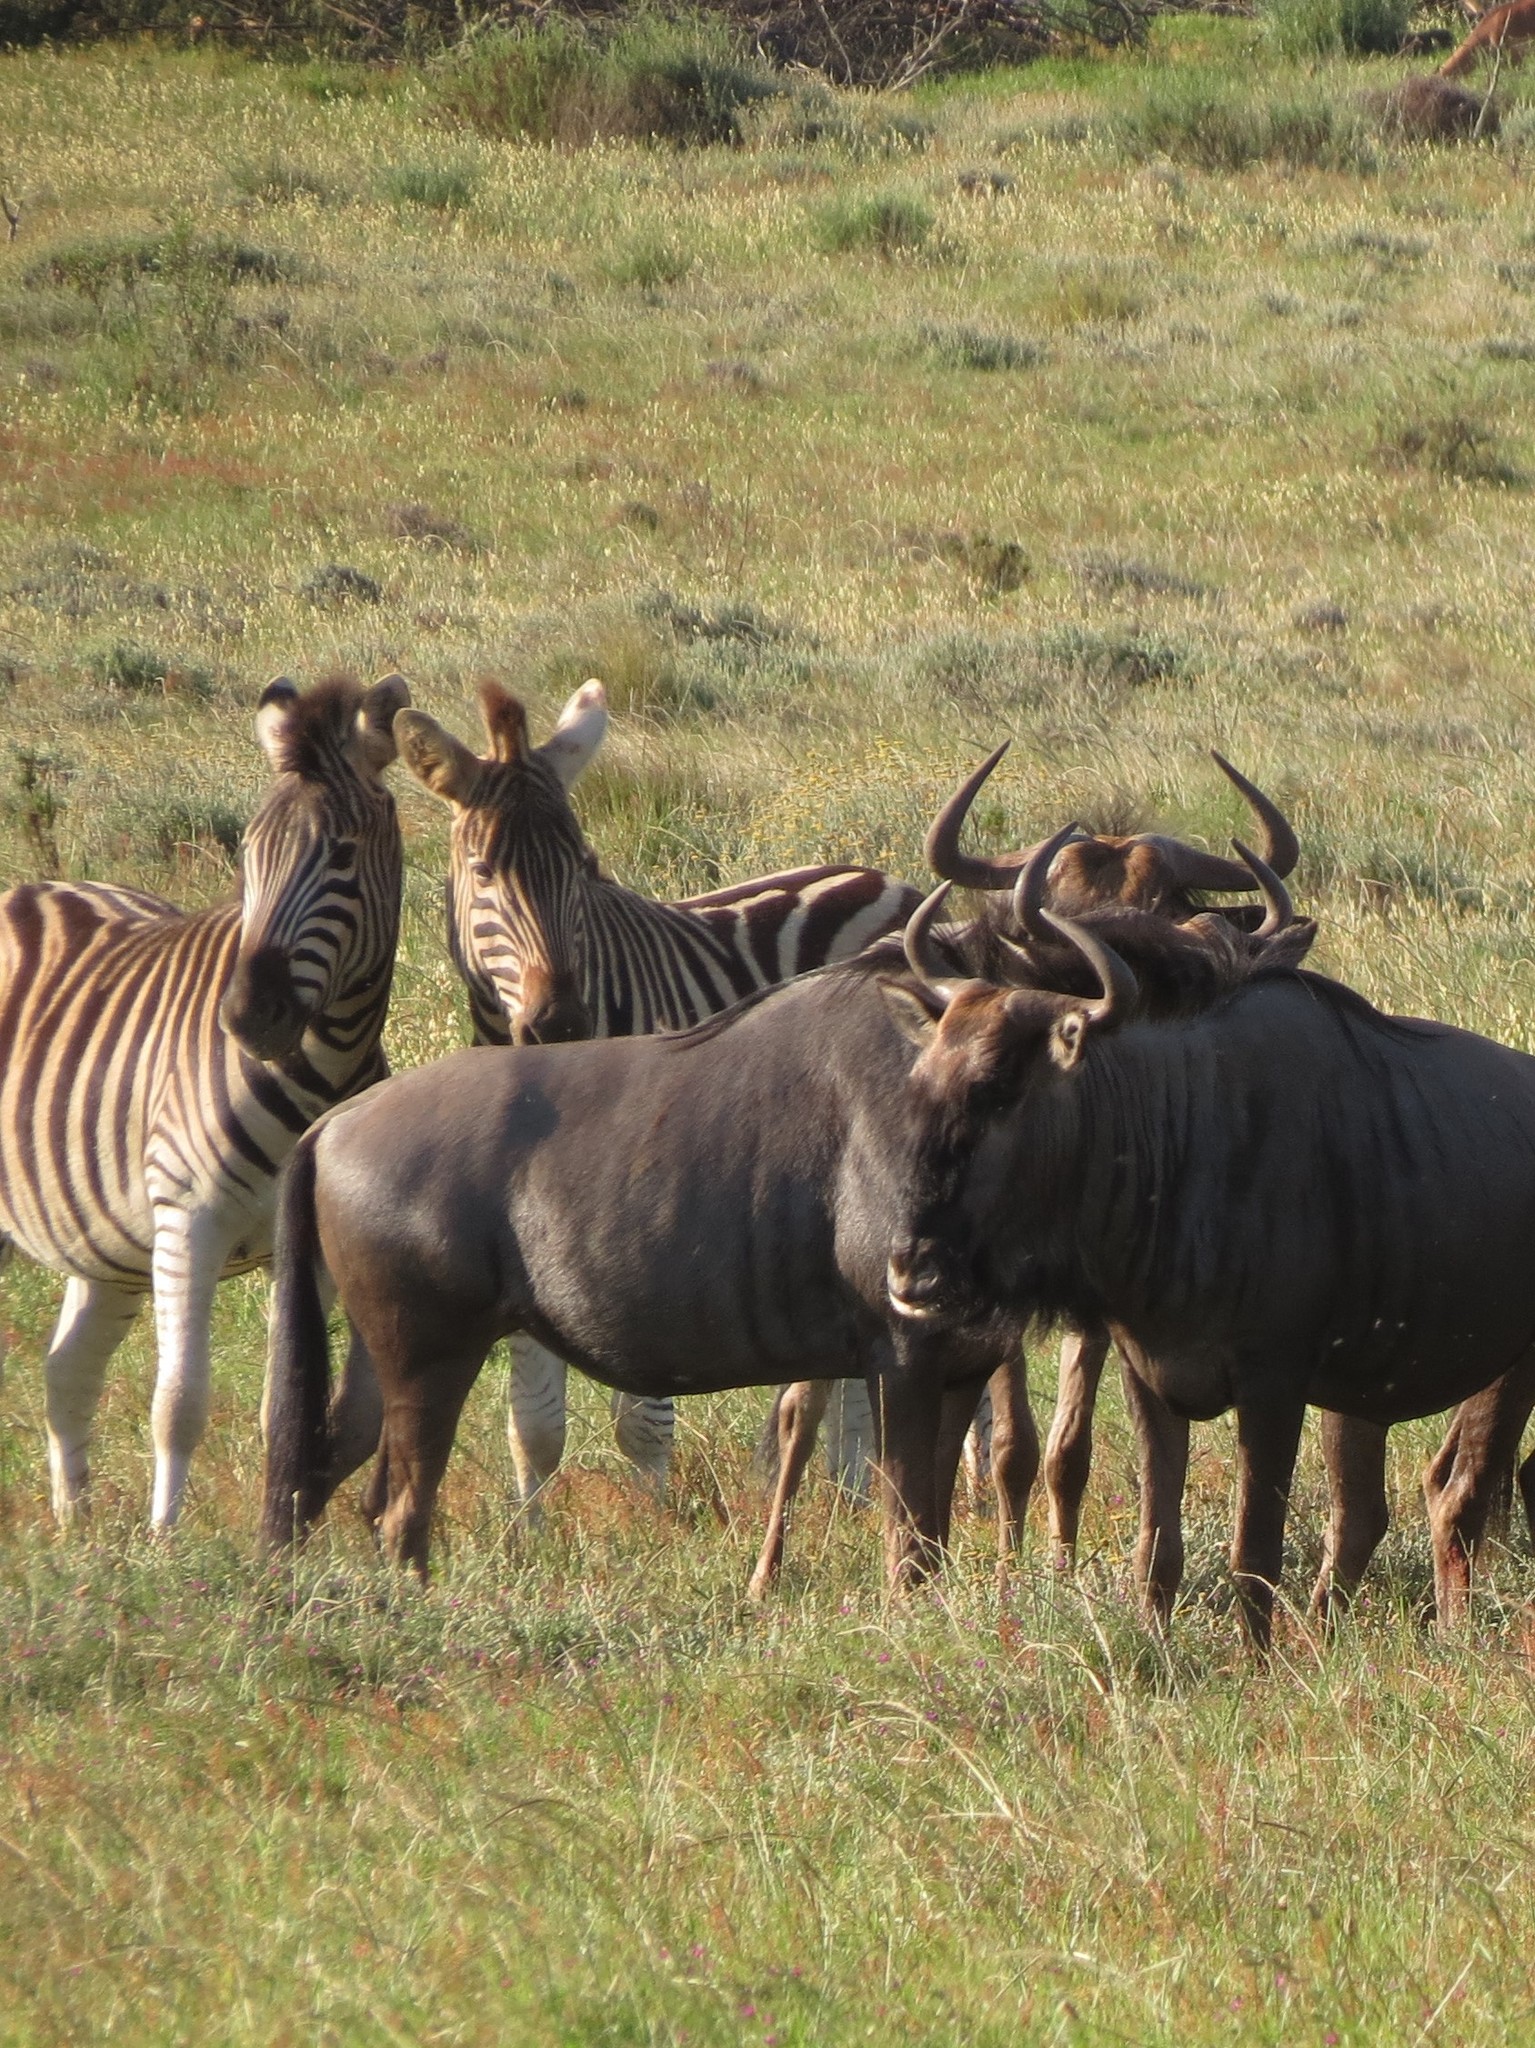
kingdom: Animalia
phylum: Chordata
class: Mammalia
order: Perissodactyla
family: Equidae
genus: Equus
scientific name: Equus quagga
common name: Plains zebra
